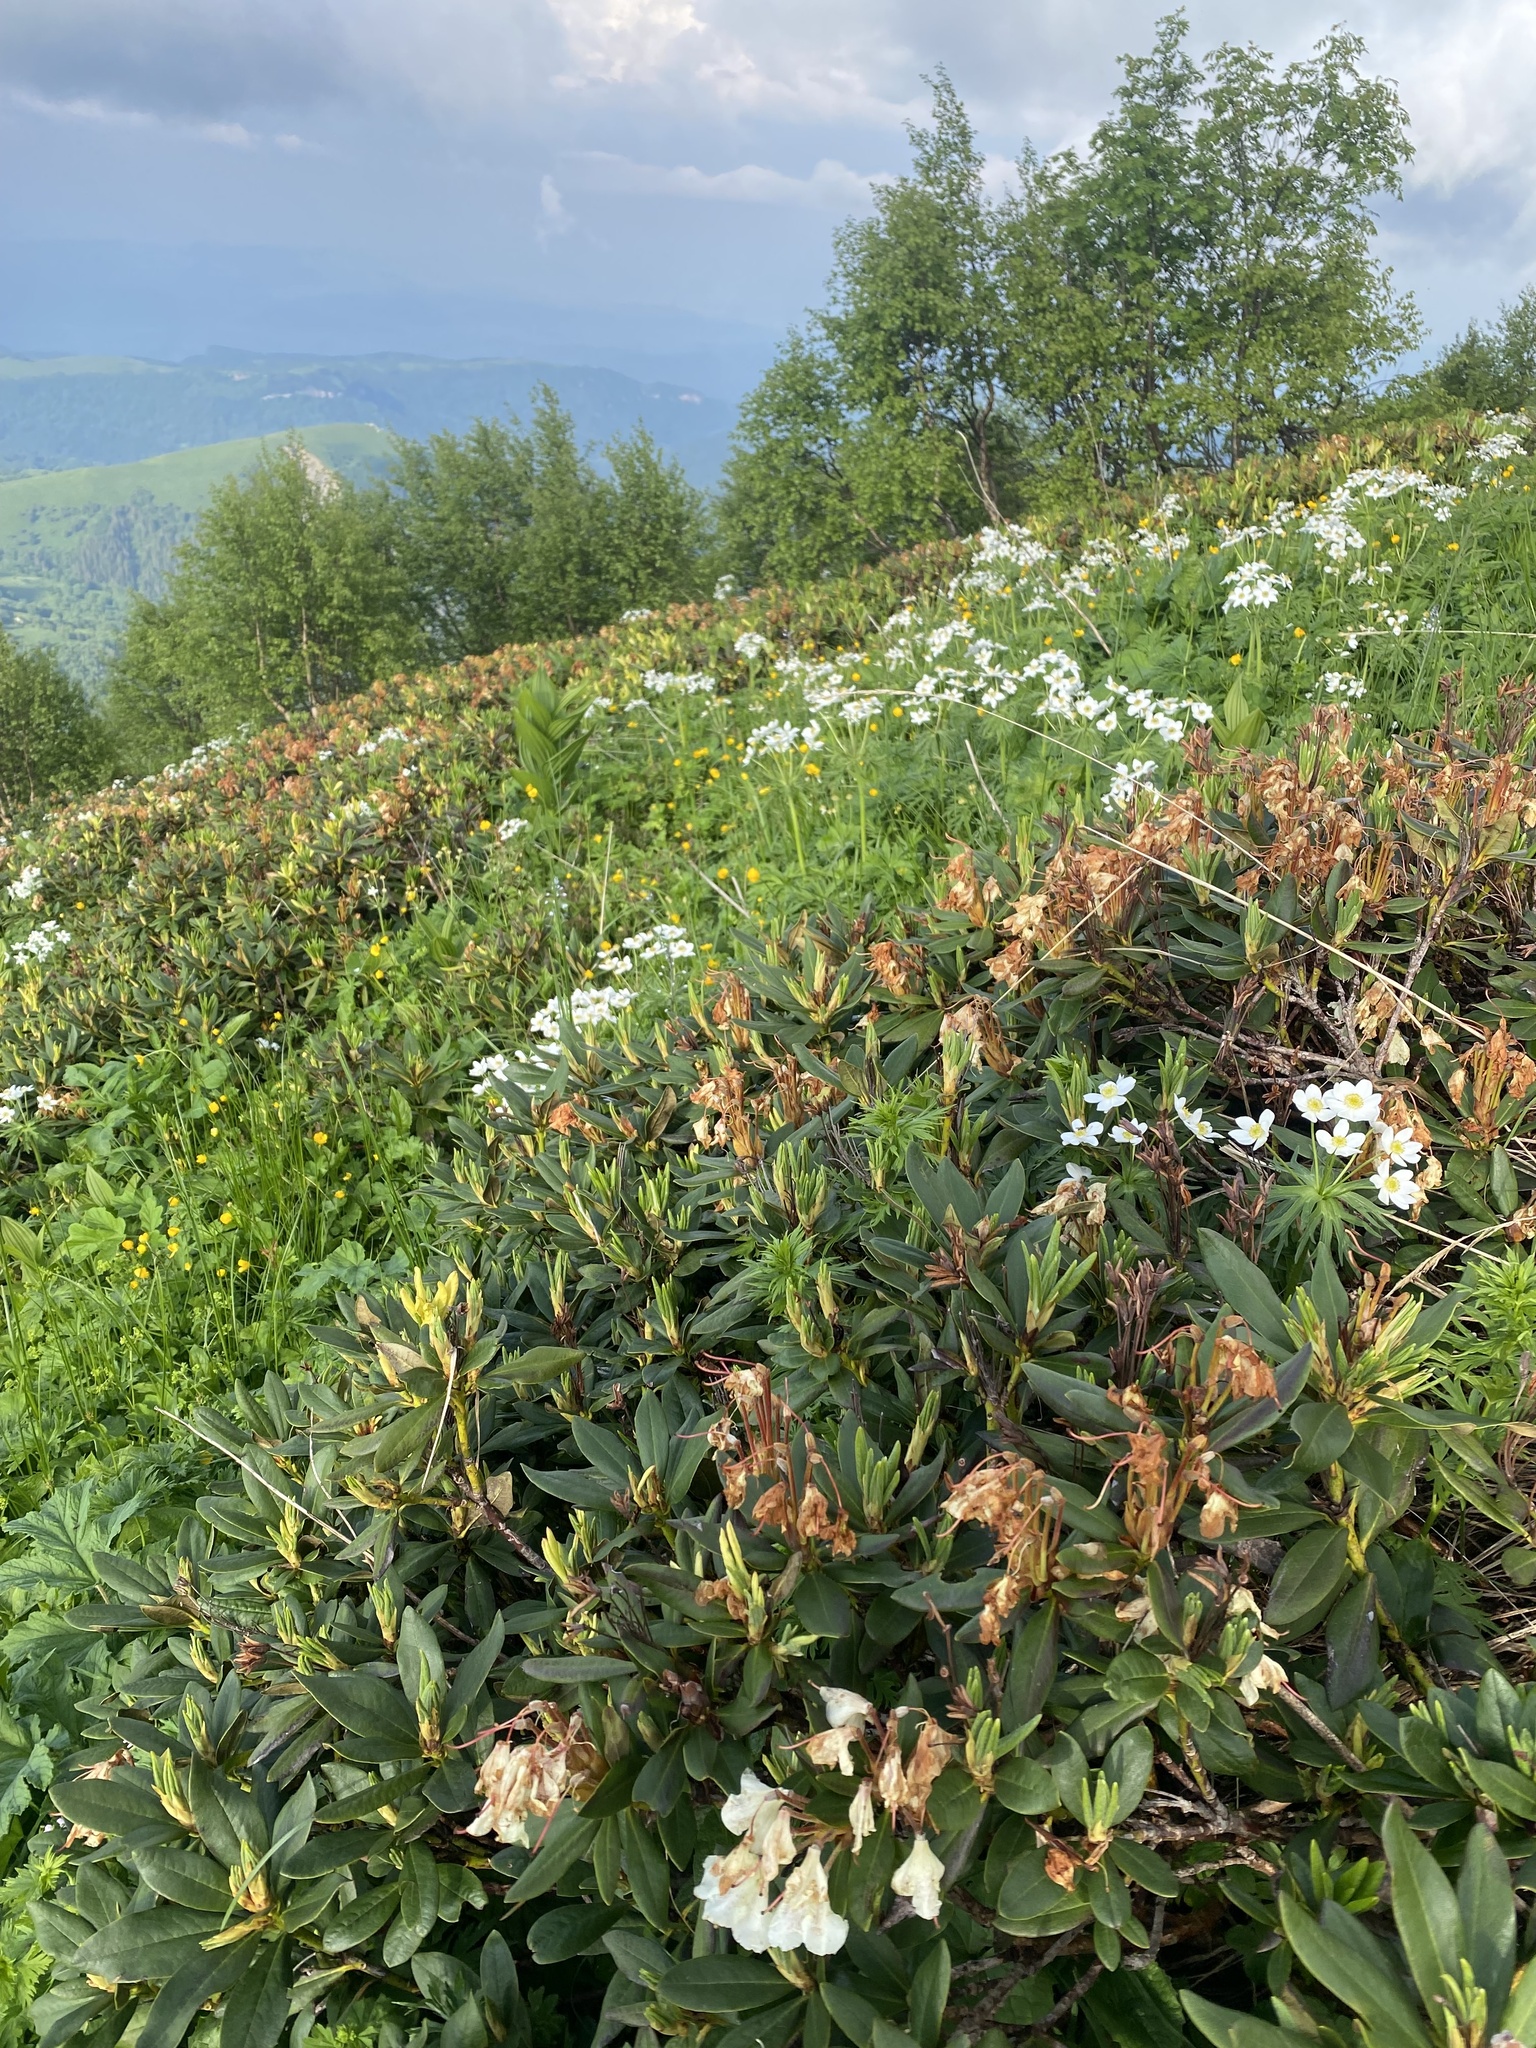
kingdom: Plantae
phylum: Tracheophyta
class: Magnoliopsida
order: Ericales
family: Ericaceae
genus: Rhododendron
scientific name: Rhododendron caucasicum
